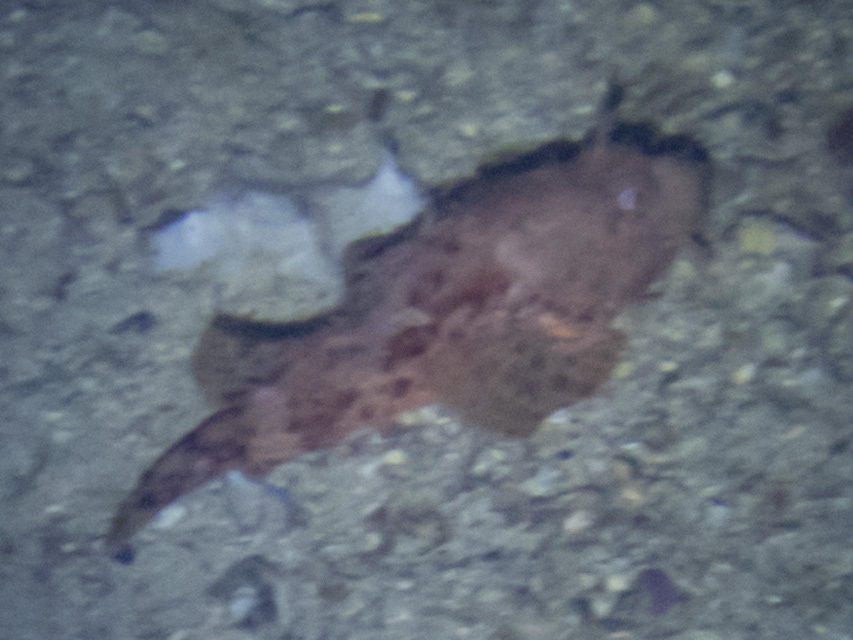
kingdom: Animalia
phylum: Chordata
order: Scorpaeniformes
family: Scorpaenidae
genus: Scorpaena
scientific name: Scorpaena scrofa
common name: Red scorpionfish
